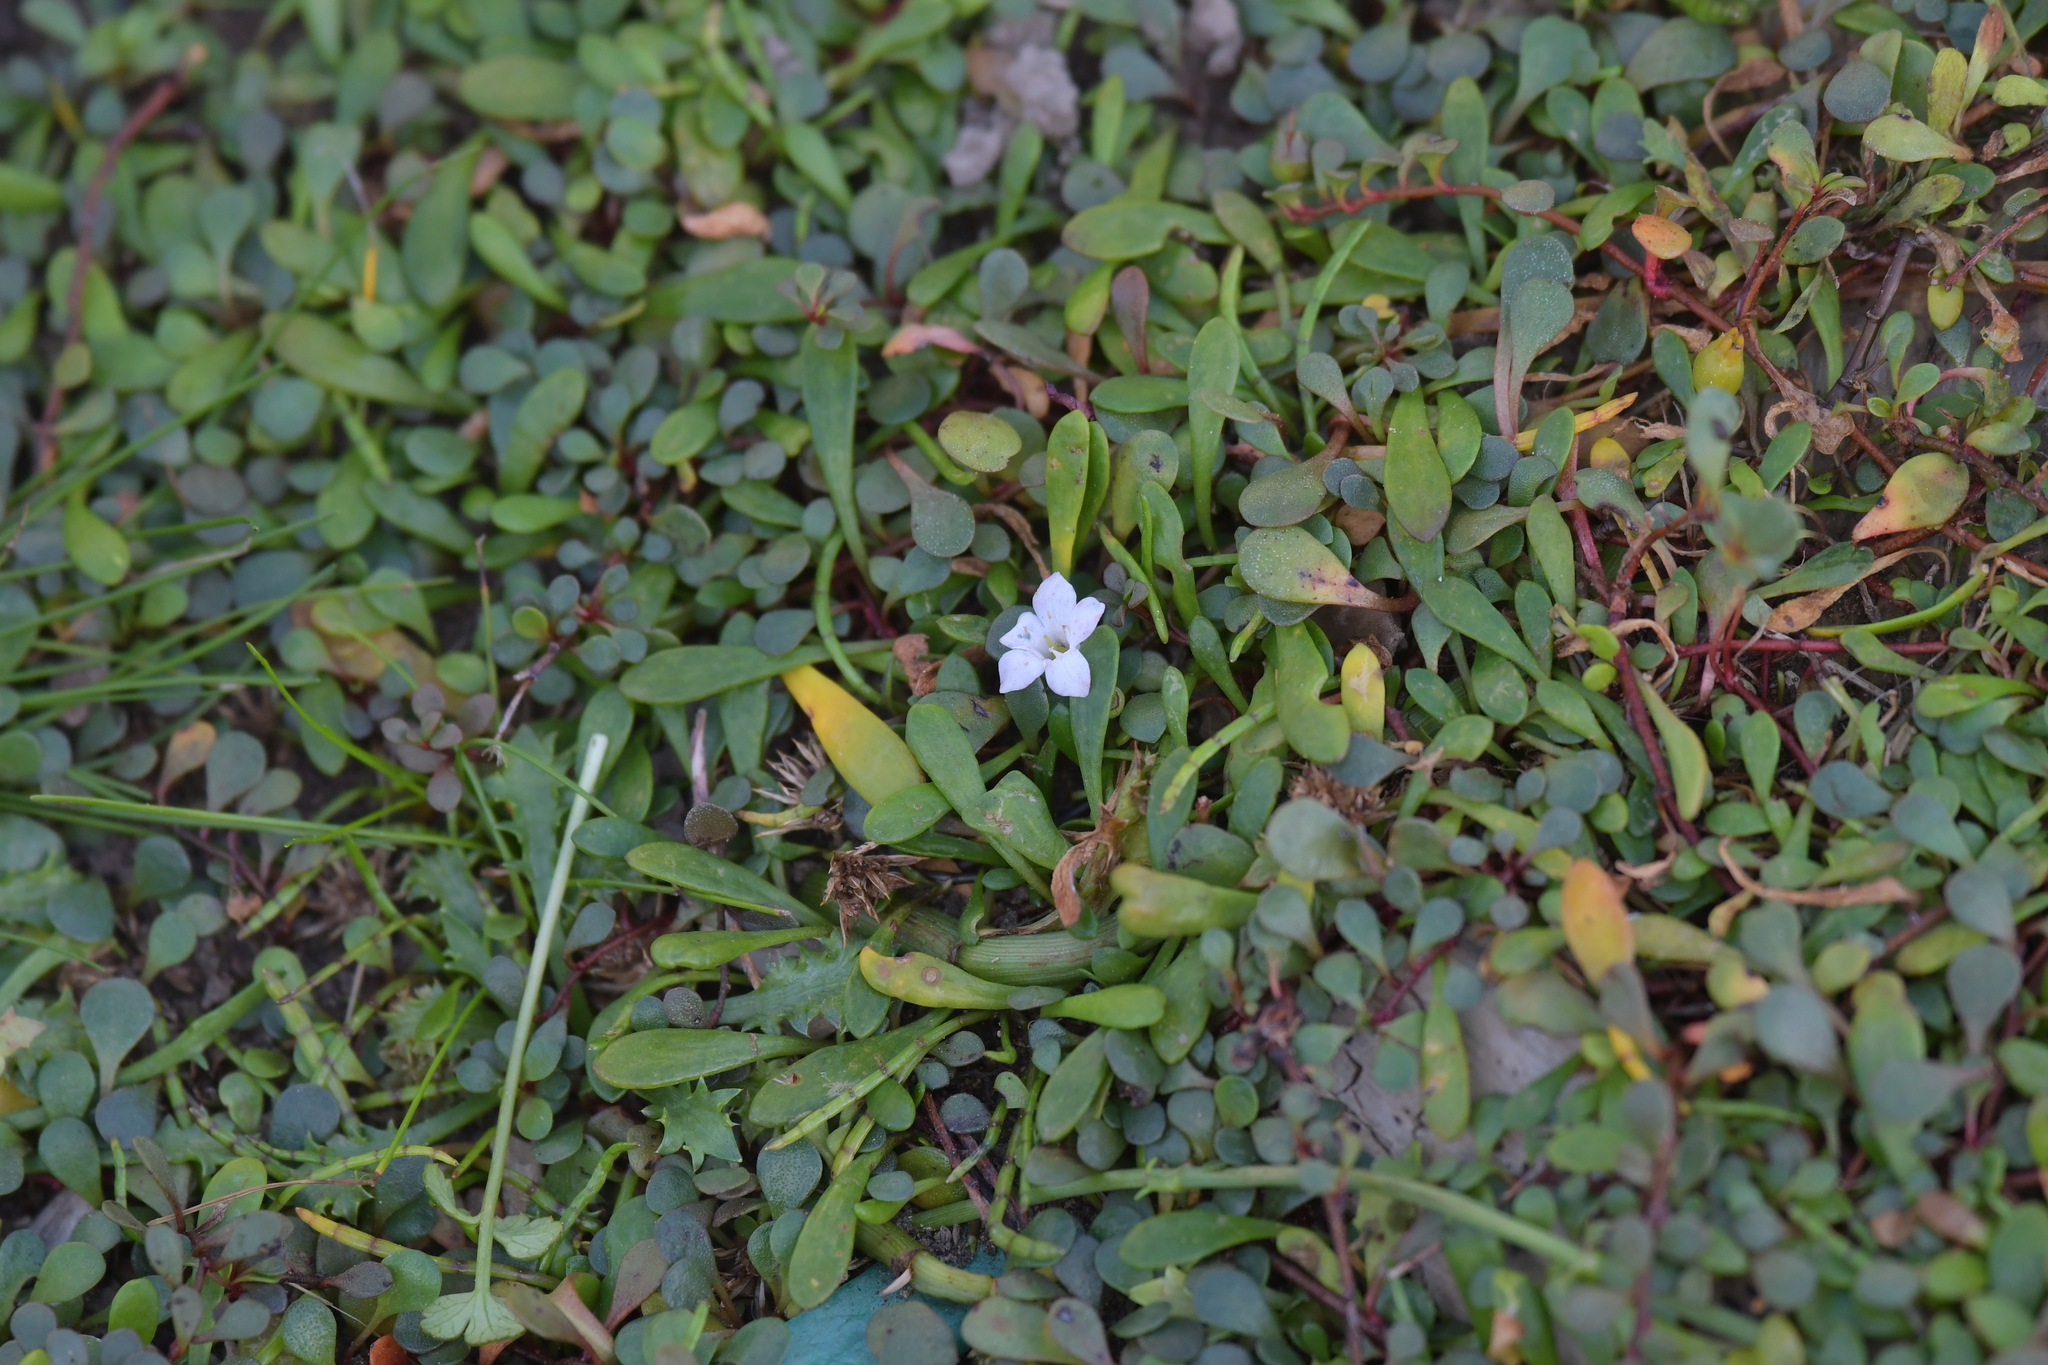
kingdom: Plantae
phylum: Tracheophyta
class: Magnoliopsida
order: Ericales
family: Primulaceae
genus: Samolus
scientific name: Samolus repens
